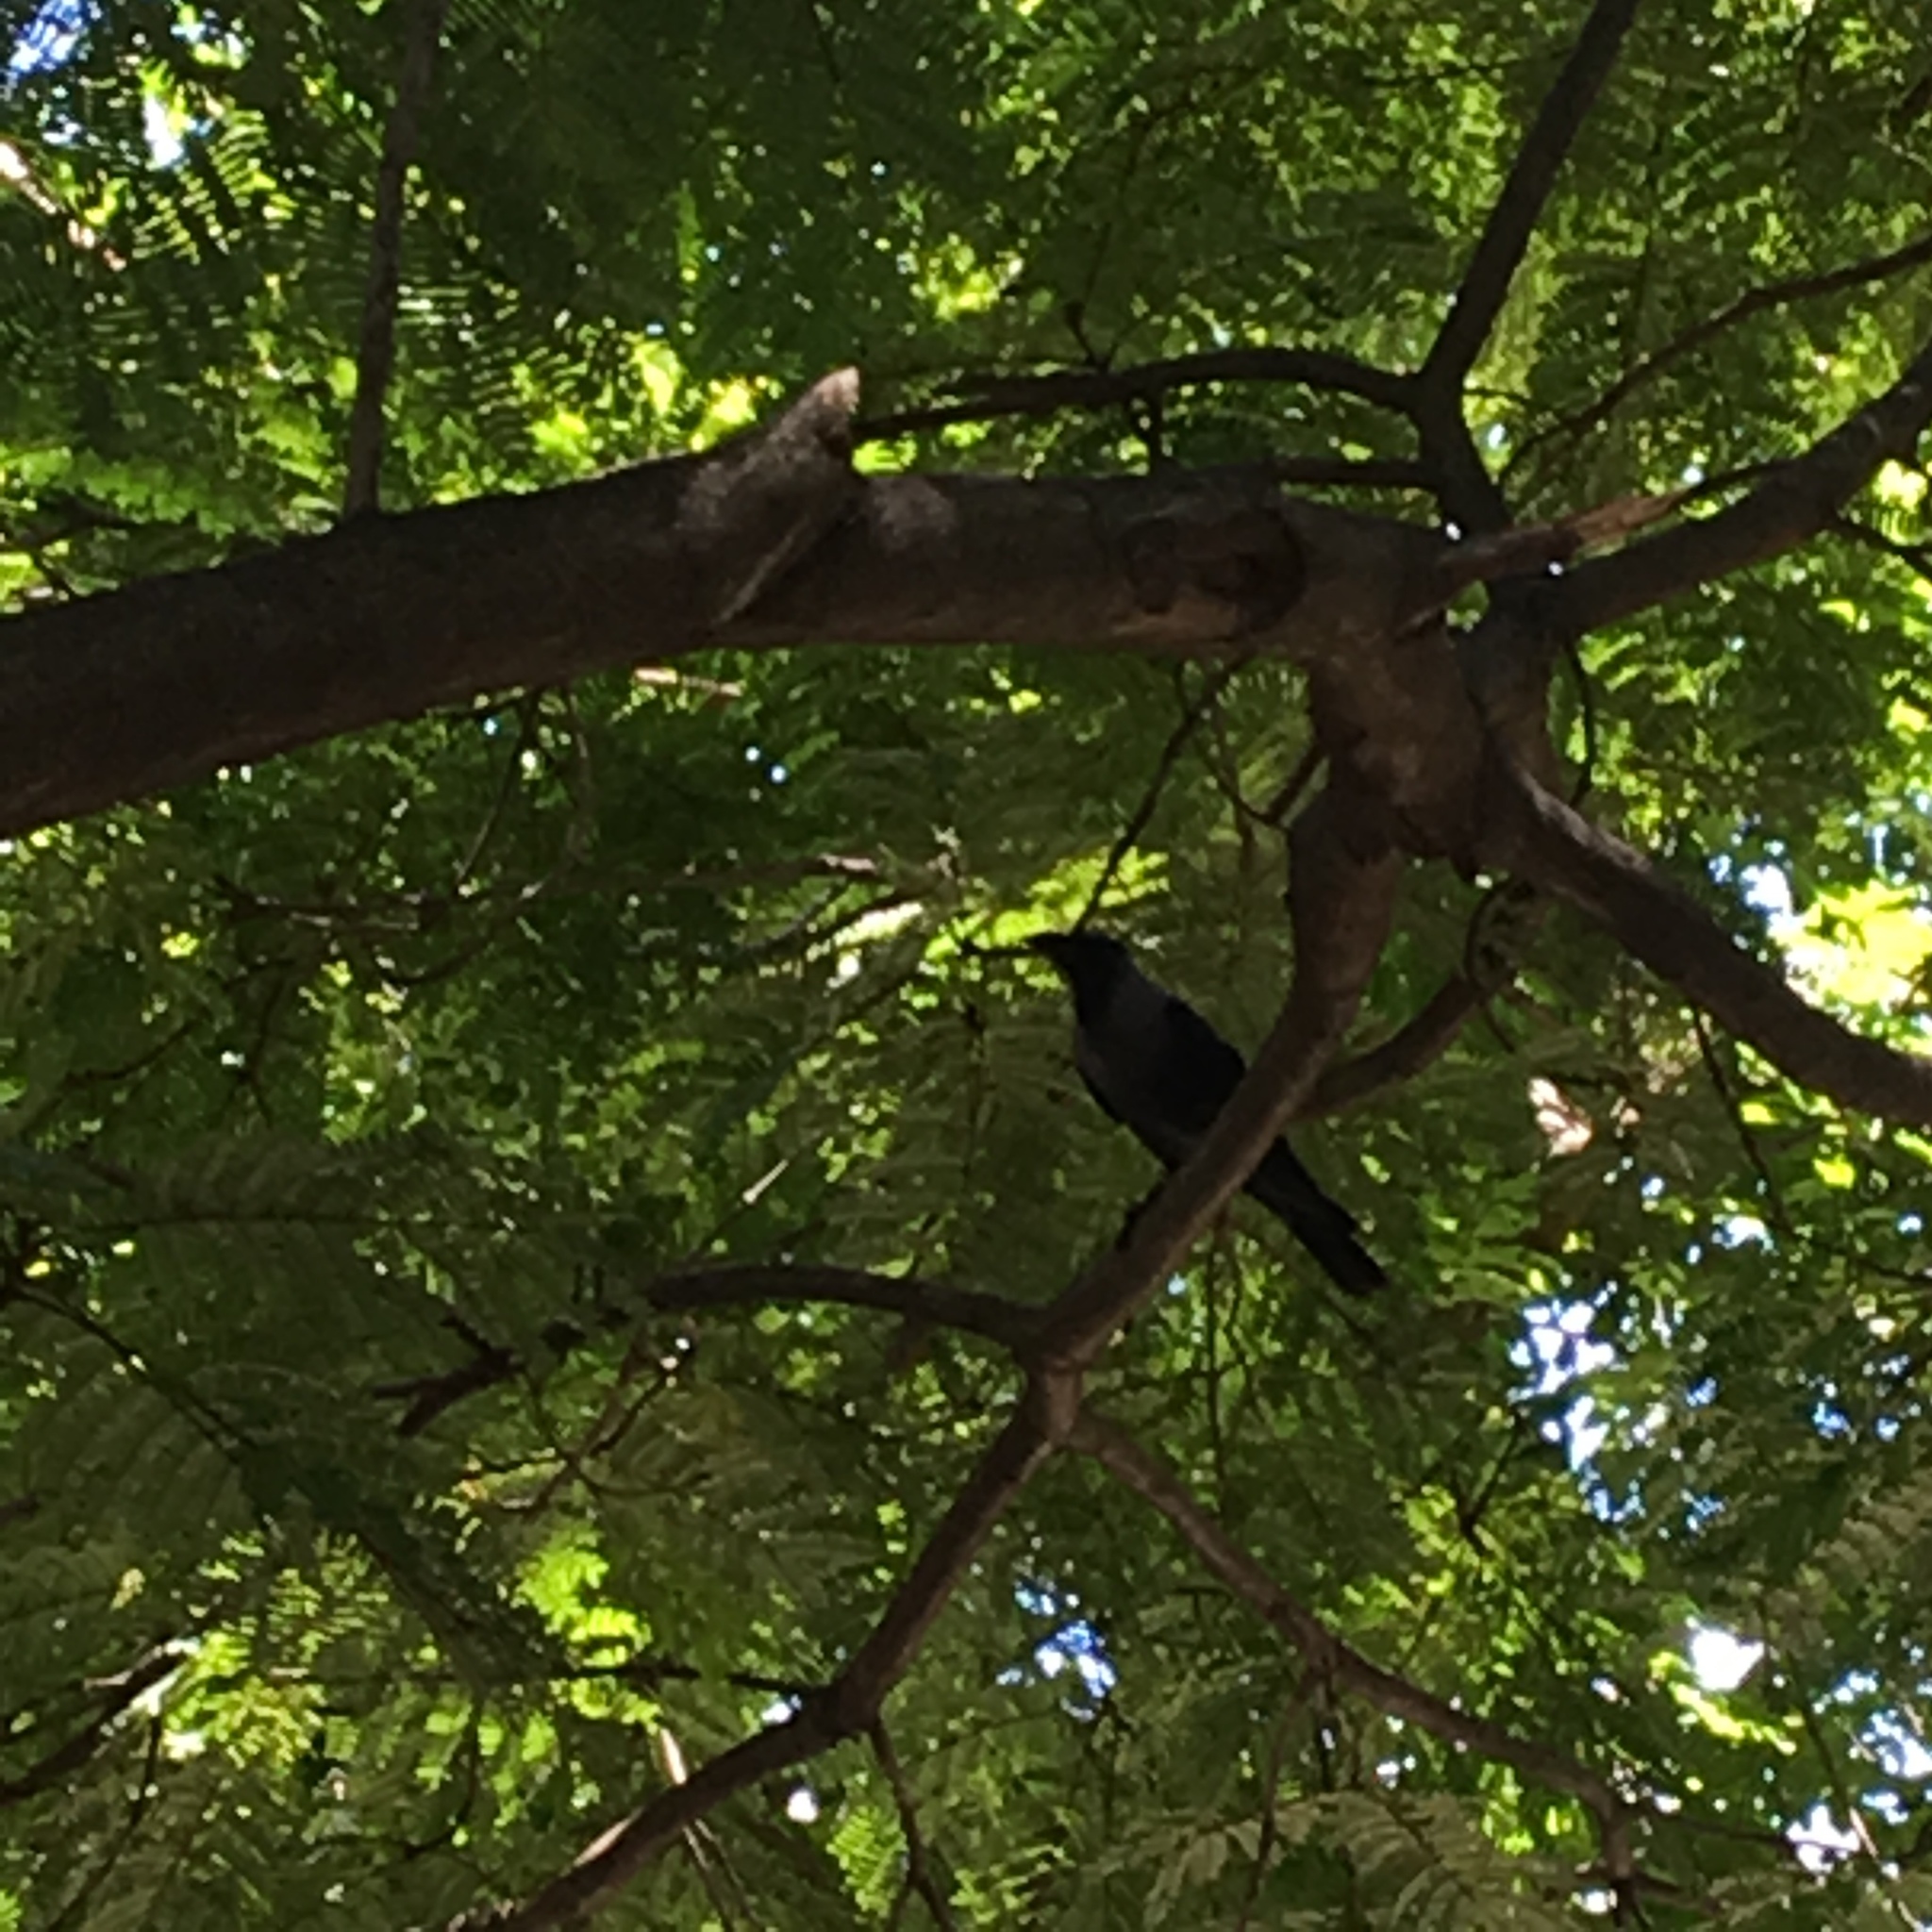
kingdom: Animalia
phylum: Chordata
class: Aves
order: Passeriformes
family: Corvidae
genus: Corvus
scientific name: Corvus splendens
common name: House crow
